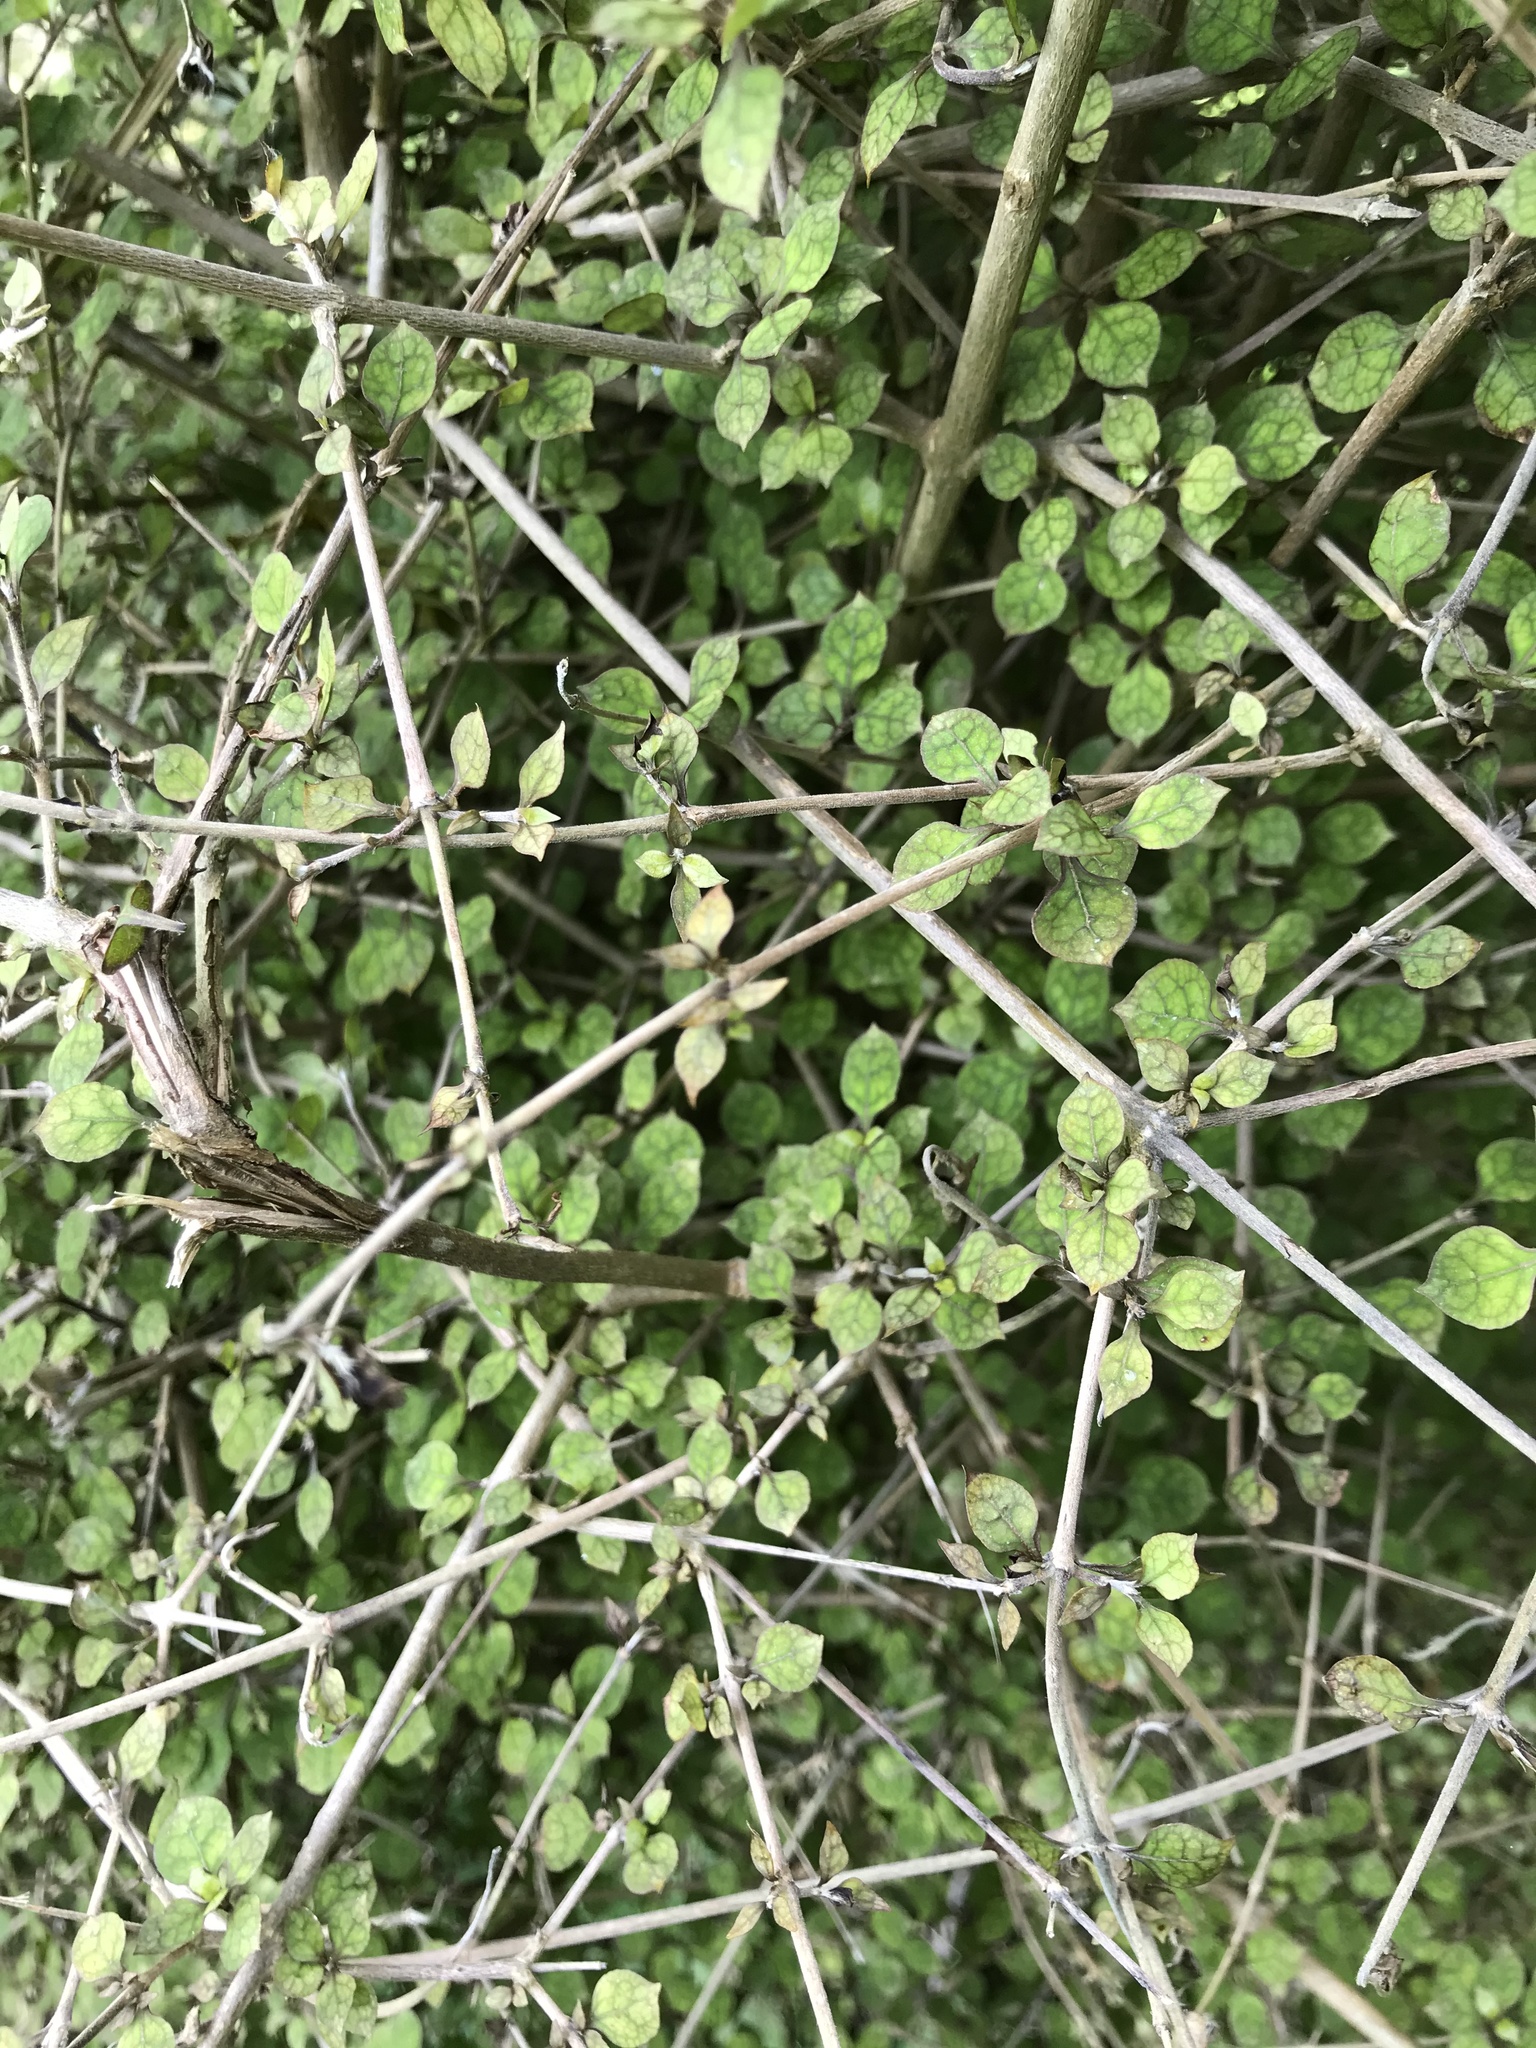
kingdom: Plantae
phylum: Tracheophyta
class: Magnoliopsida
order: Gentianales
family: Rubiaceae
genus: Coprosma
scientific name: Coprosma areolata
